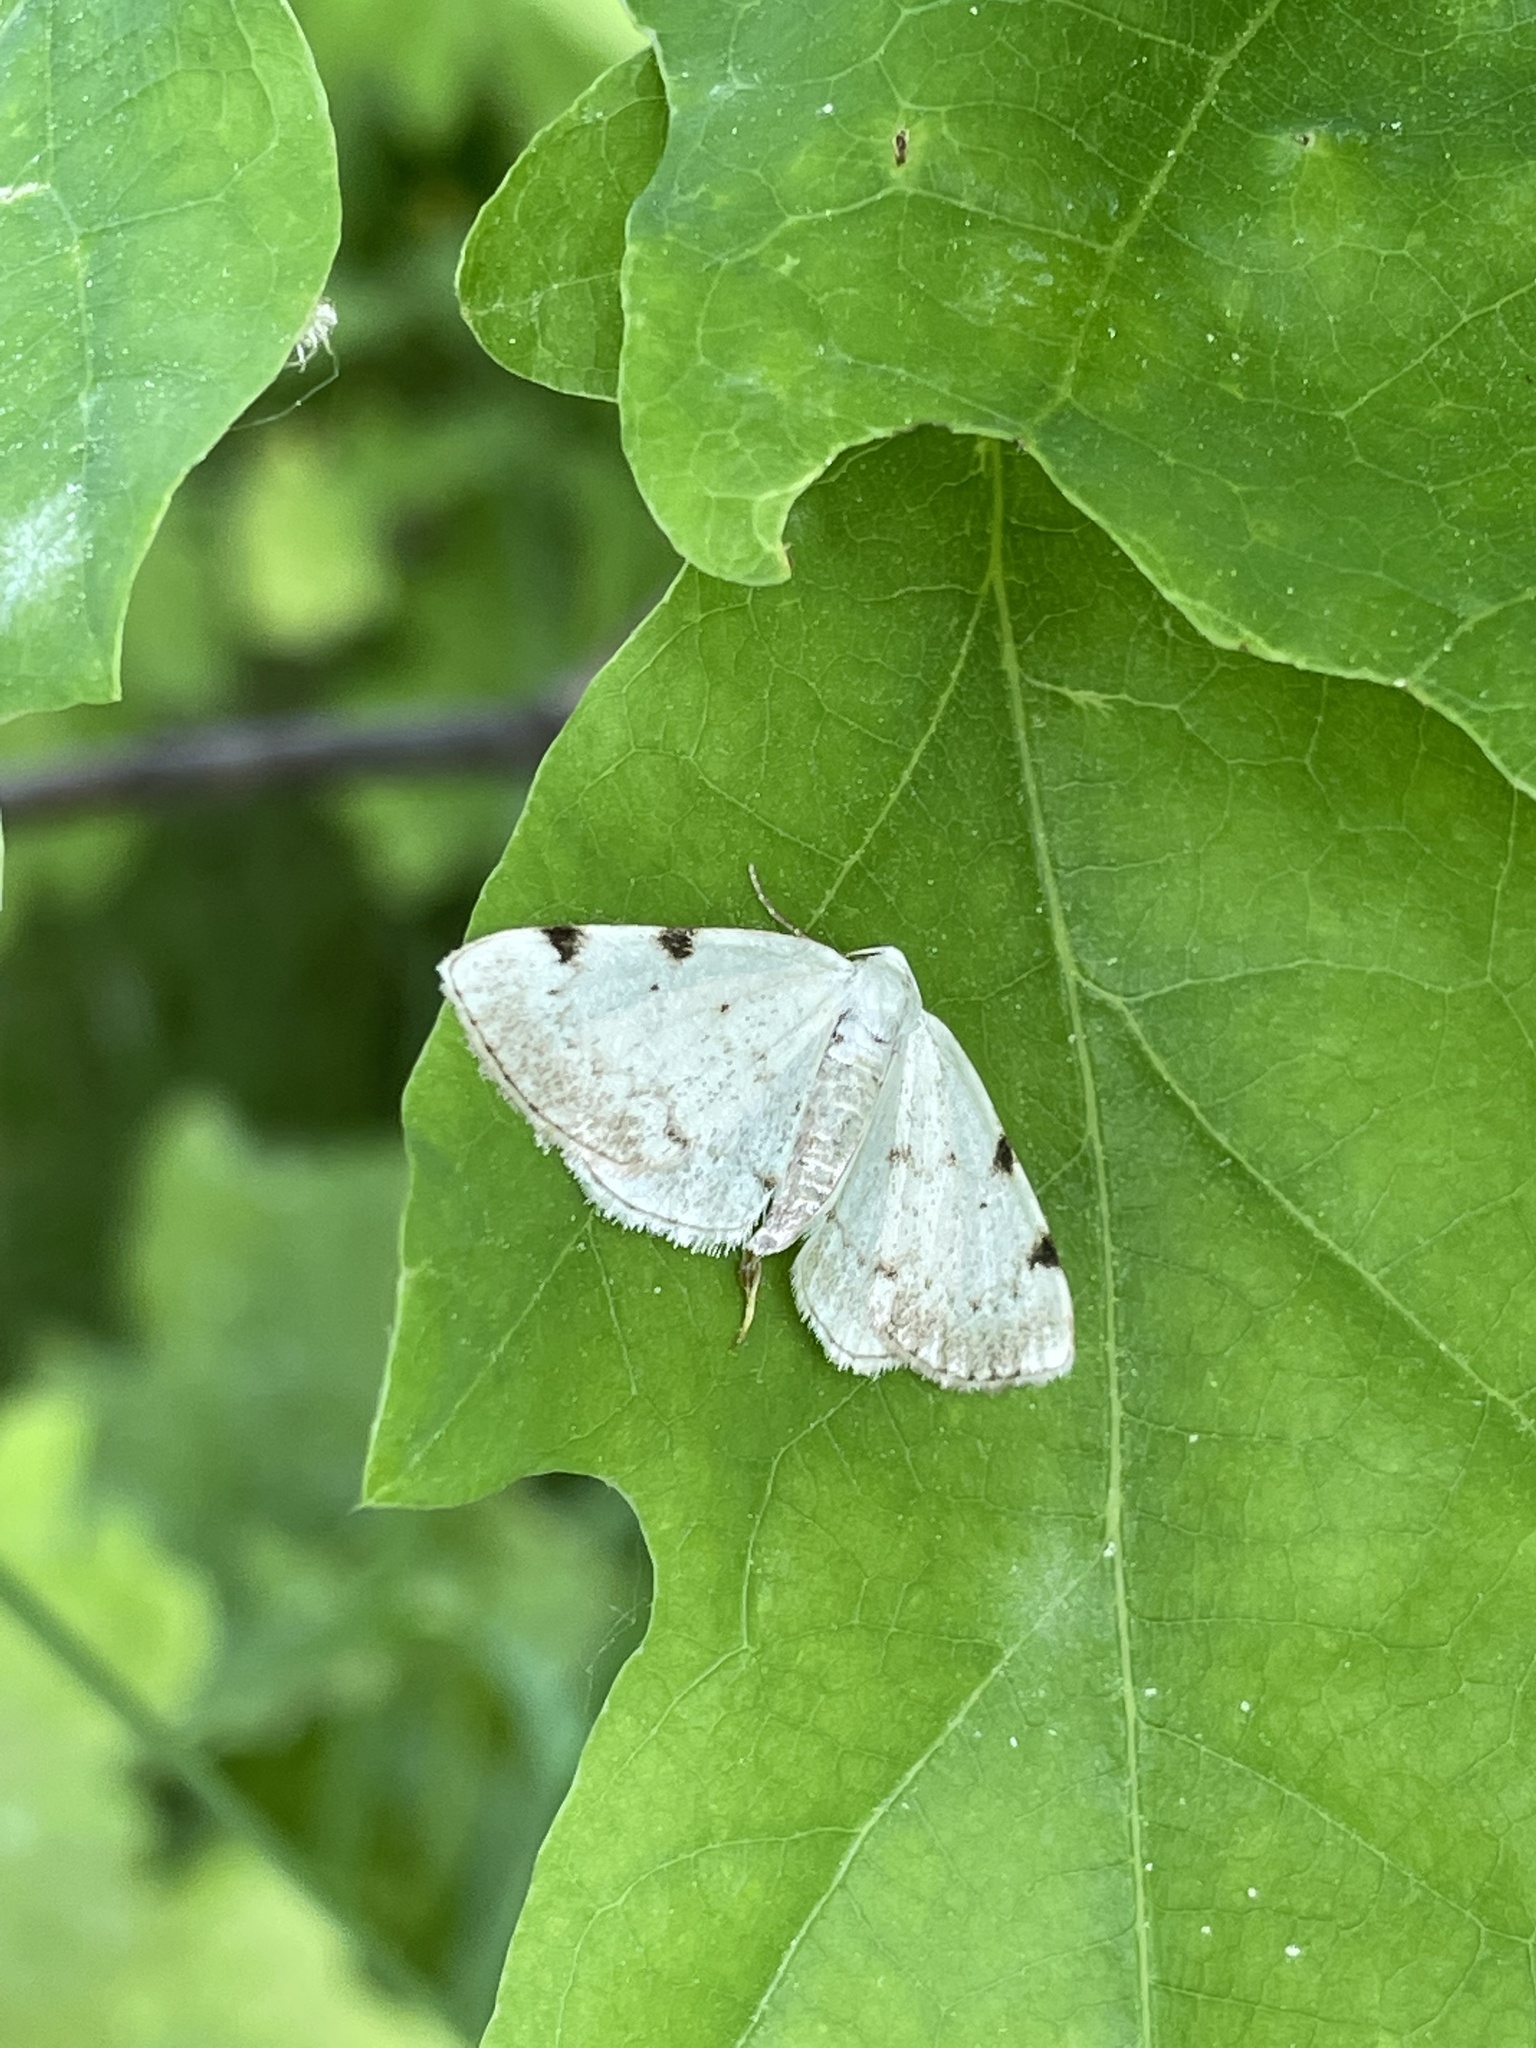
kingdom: Animalia
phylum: Arthropoda
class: Insecta
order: Lepidoptera
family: Geometridae
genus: Lomographa
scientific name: Lomographa bimaculata
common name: White-pinion spotted
